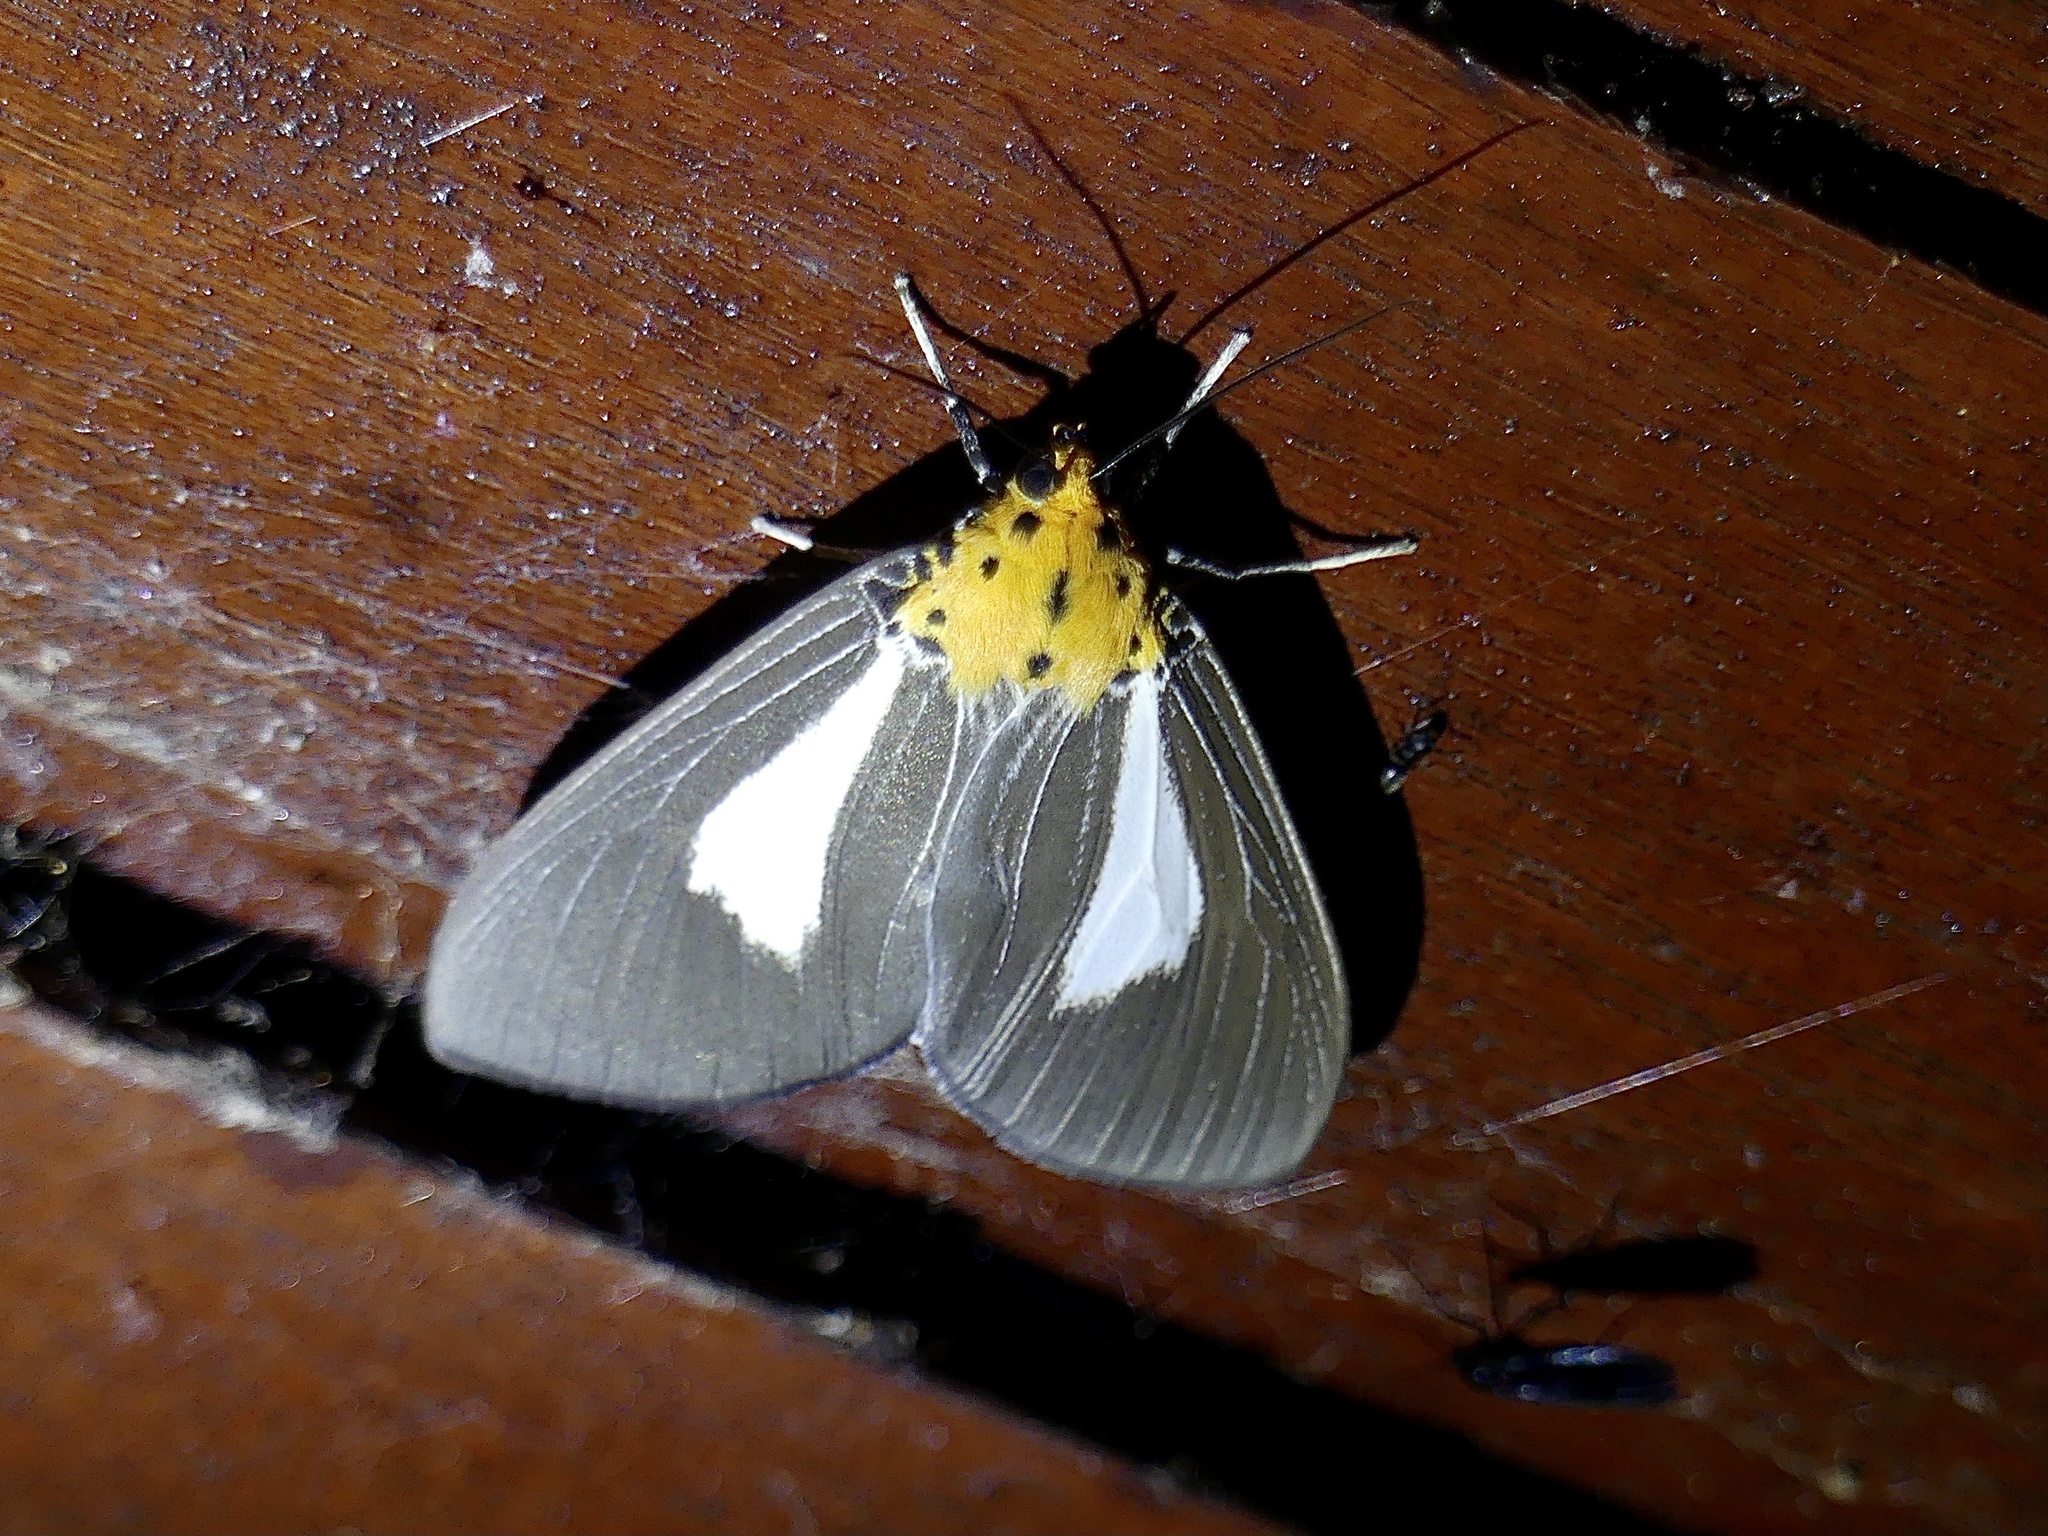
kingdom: Animalia
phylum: Arthropoda
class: Insecta
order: Lepidoptera
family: Erebidae
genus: Asota
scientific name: Asota heliconia
